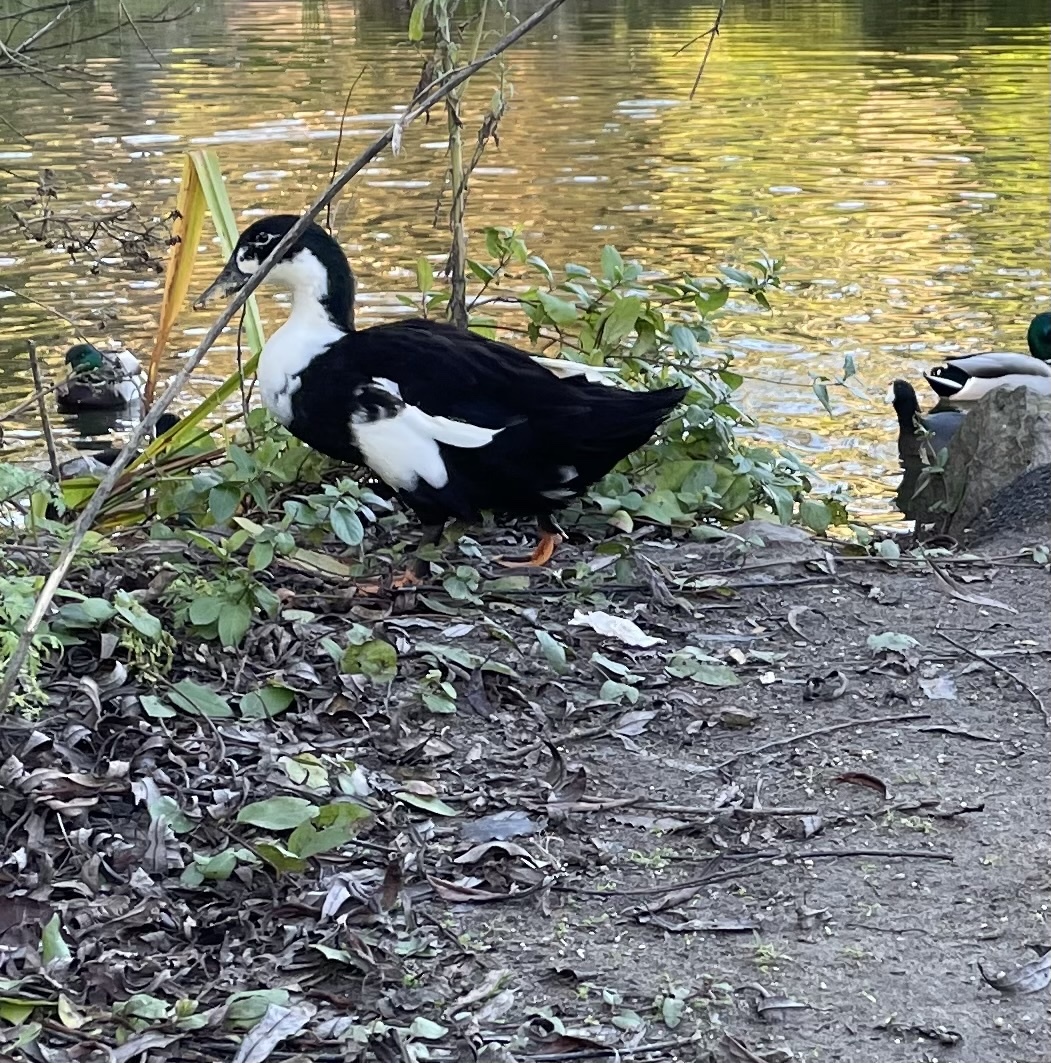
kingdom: Animalia
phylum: Chordata
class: Aves
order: Anseriformes
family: Anatidae
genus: Anas
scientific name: Anas platyrhynchos
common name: Mallard
